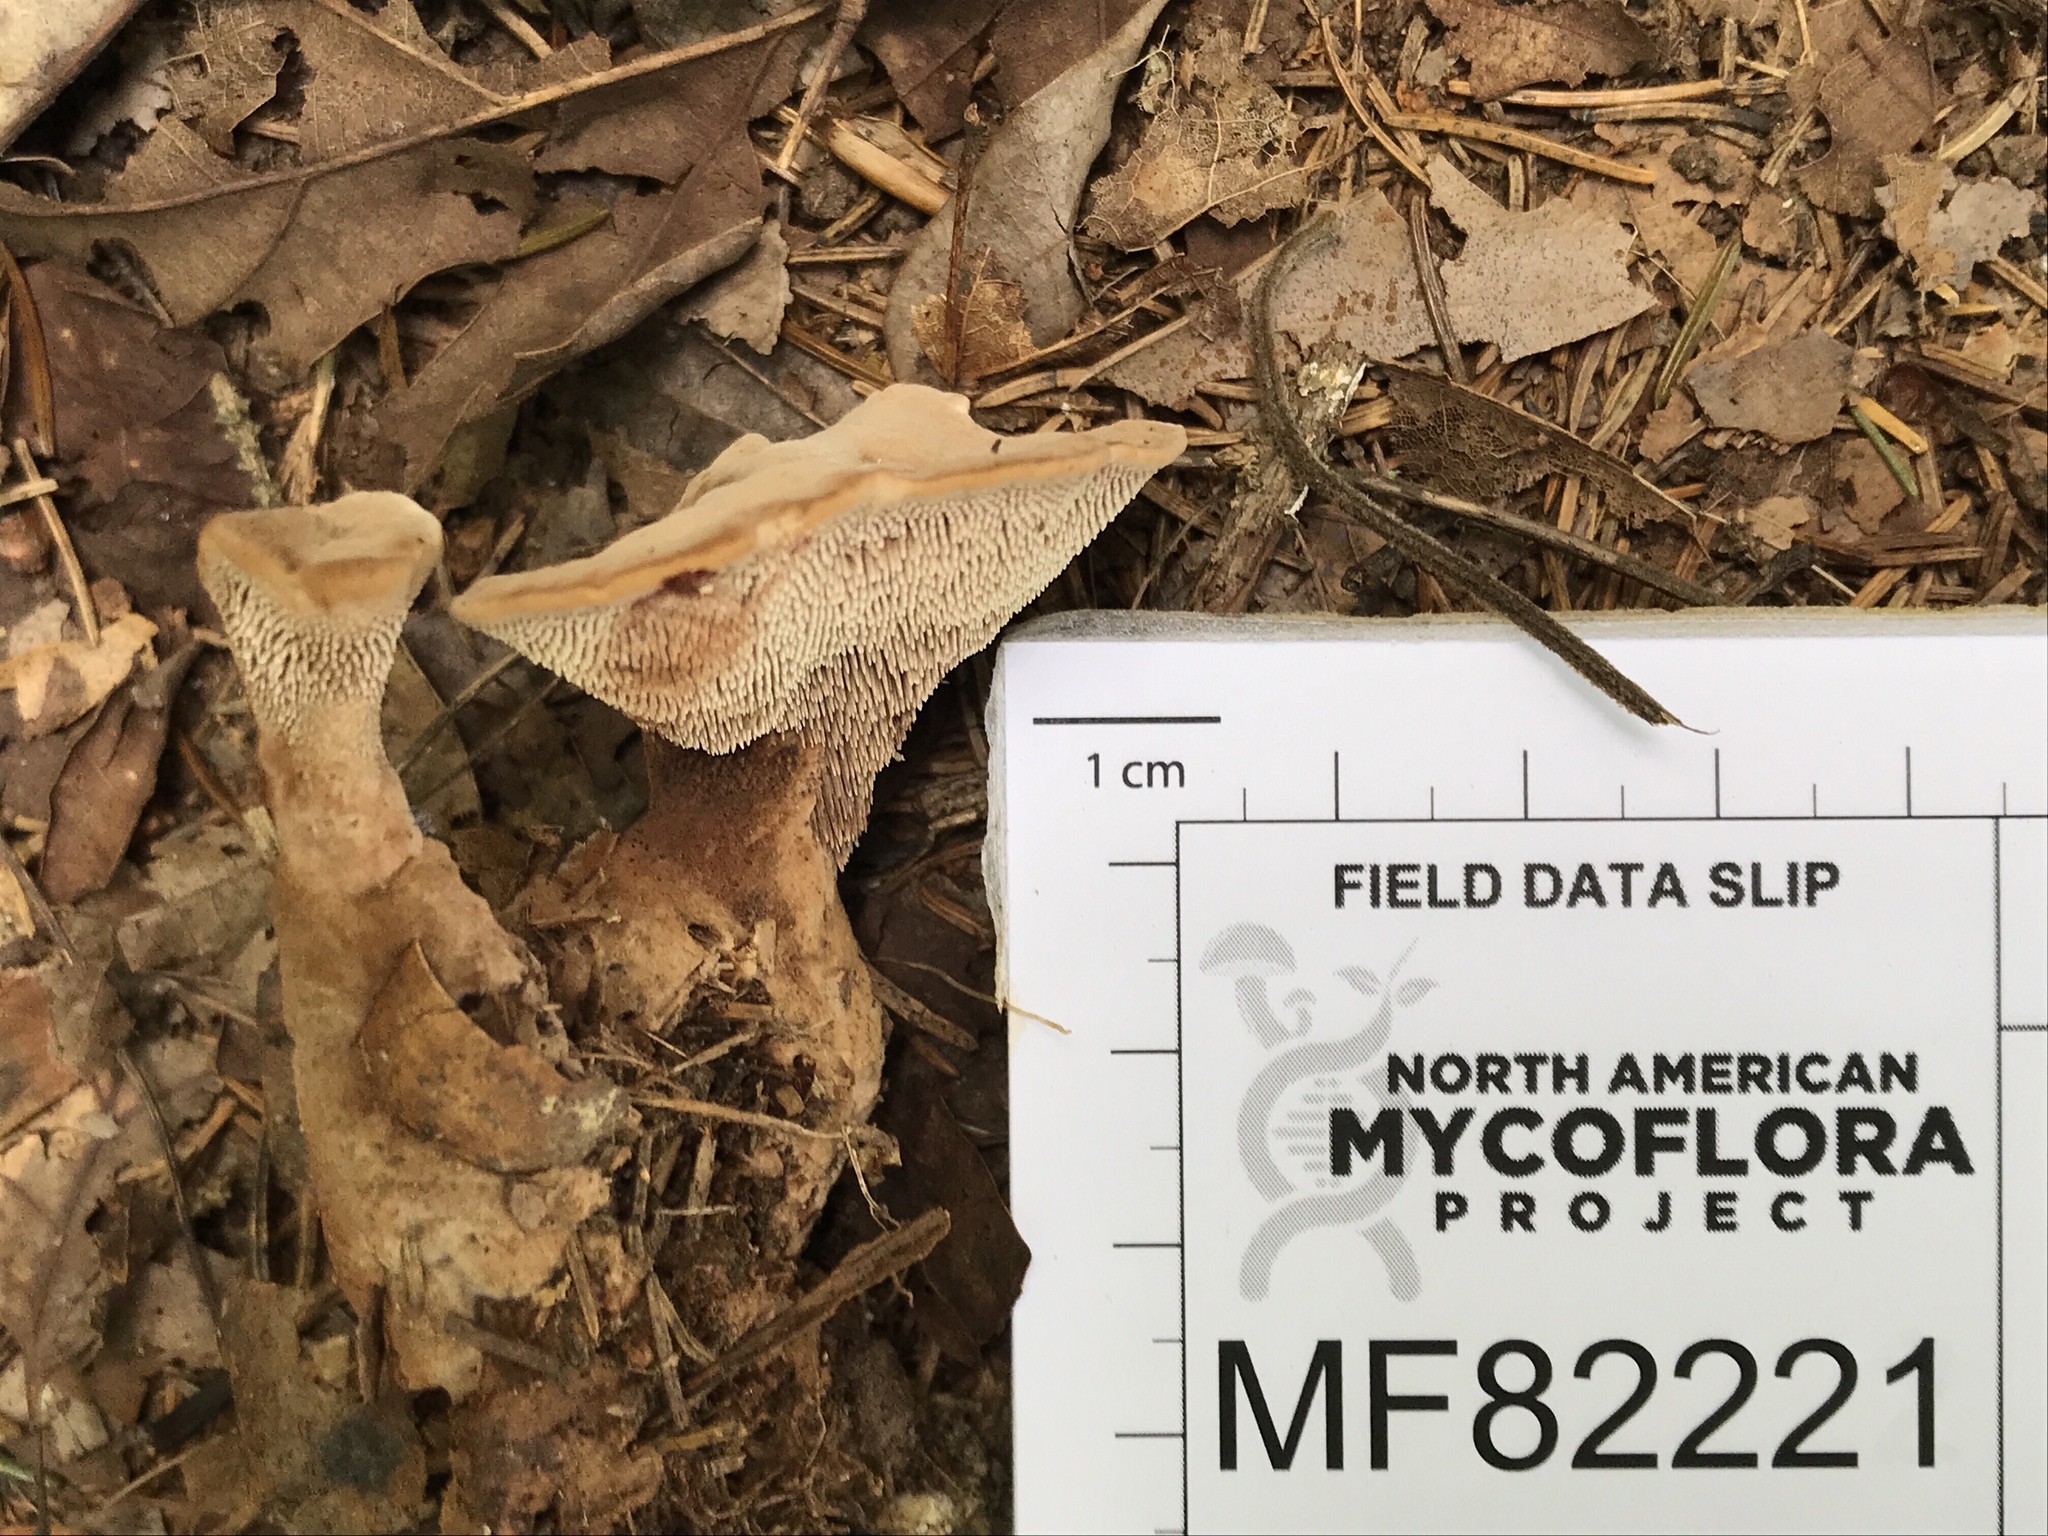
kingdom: Fungi
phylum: Basidiomycota
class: Agaricomycetes
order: Thelephorales
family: Bankeraceae
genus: Hydnellum
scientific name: Hydnellum ferrugineum
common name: Mealy tooth
